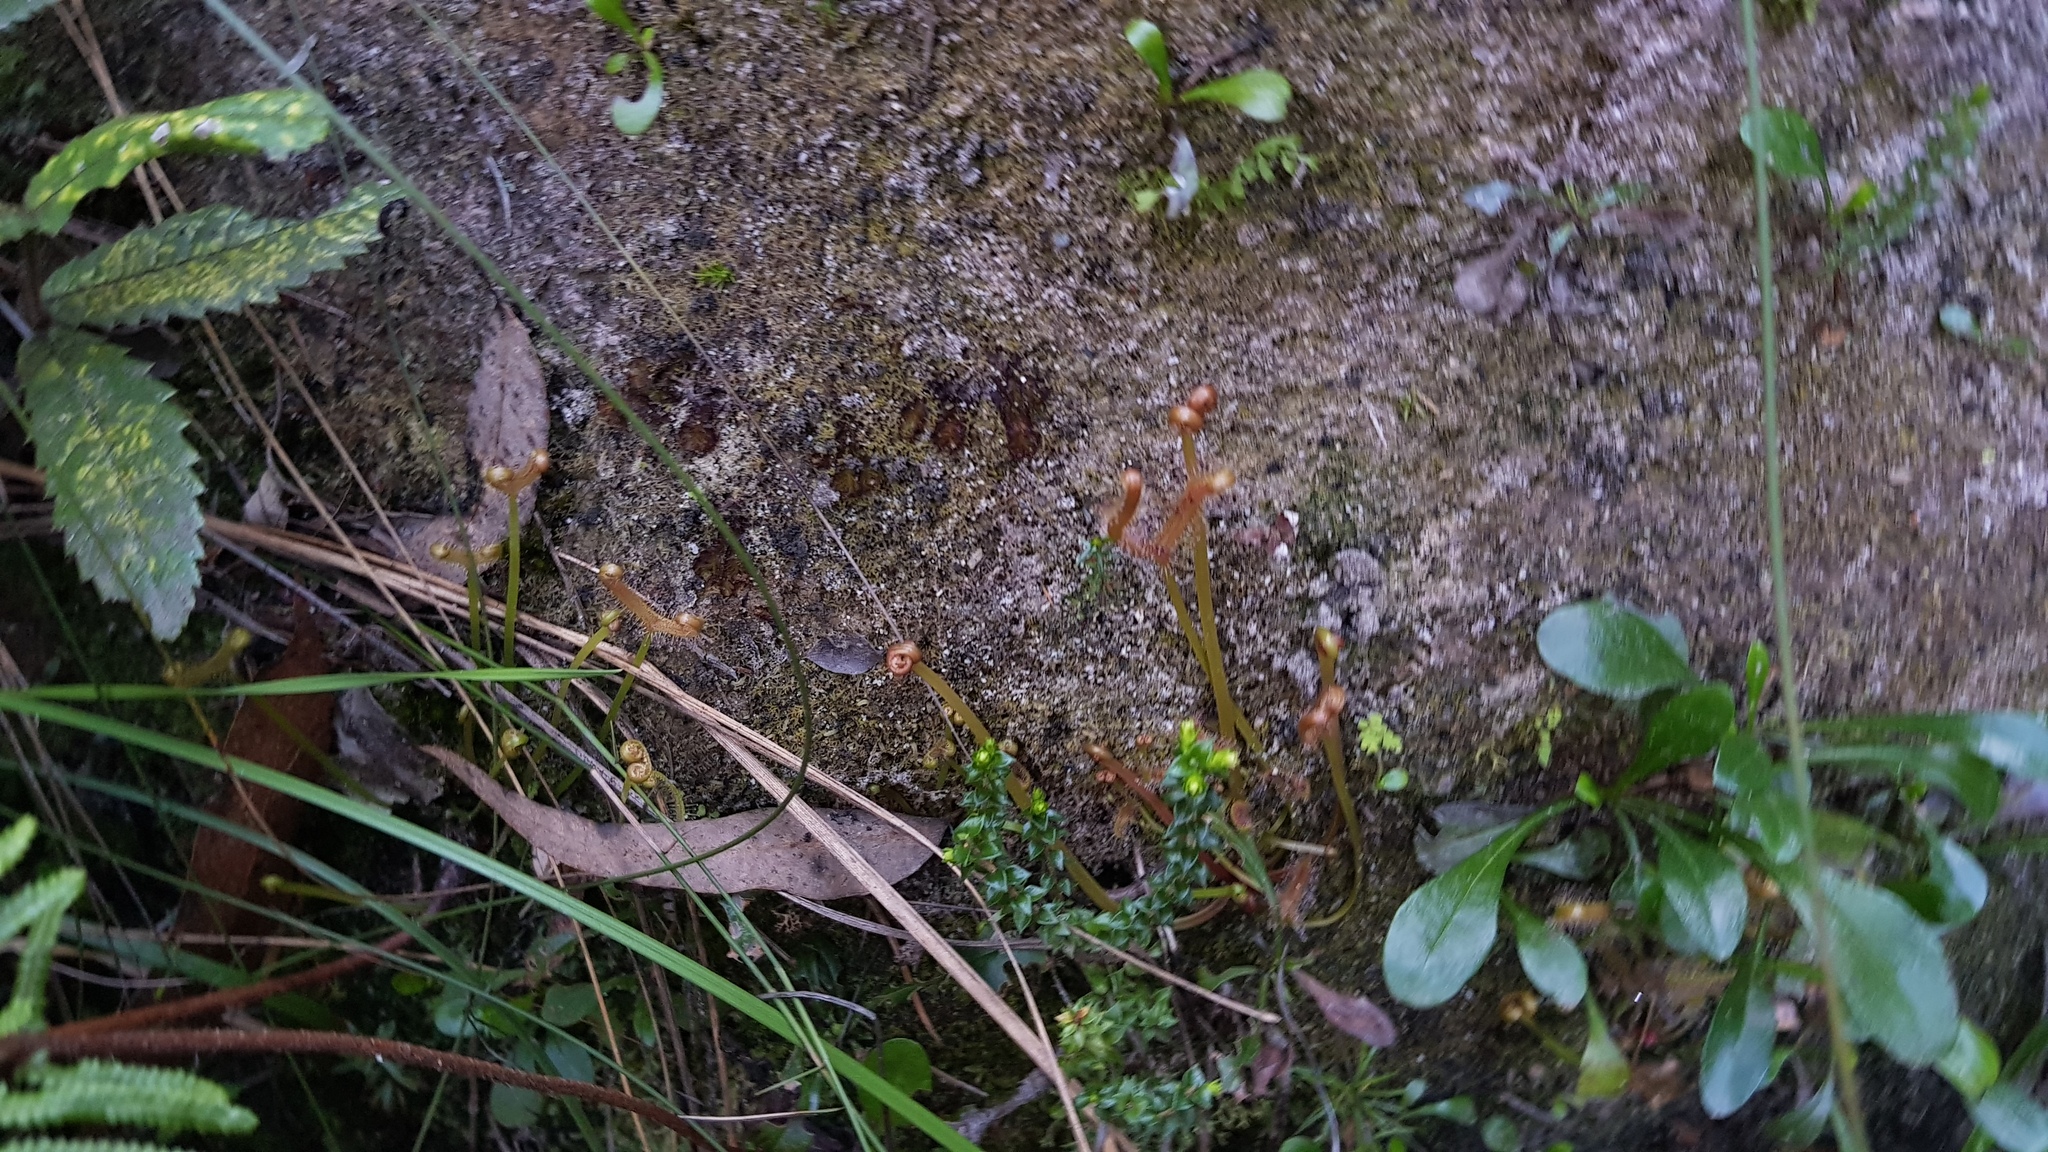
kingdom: Plantae
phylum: Tracheophyta
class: Magnoliopsida
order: Caryophyllales
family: Droseraceae
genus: Drosera
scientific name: Drosera binata
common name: Forked sundew
